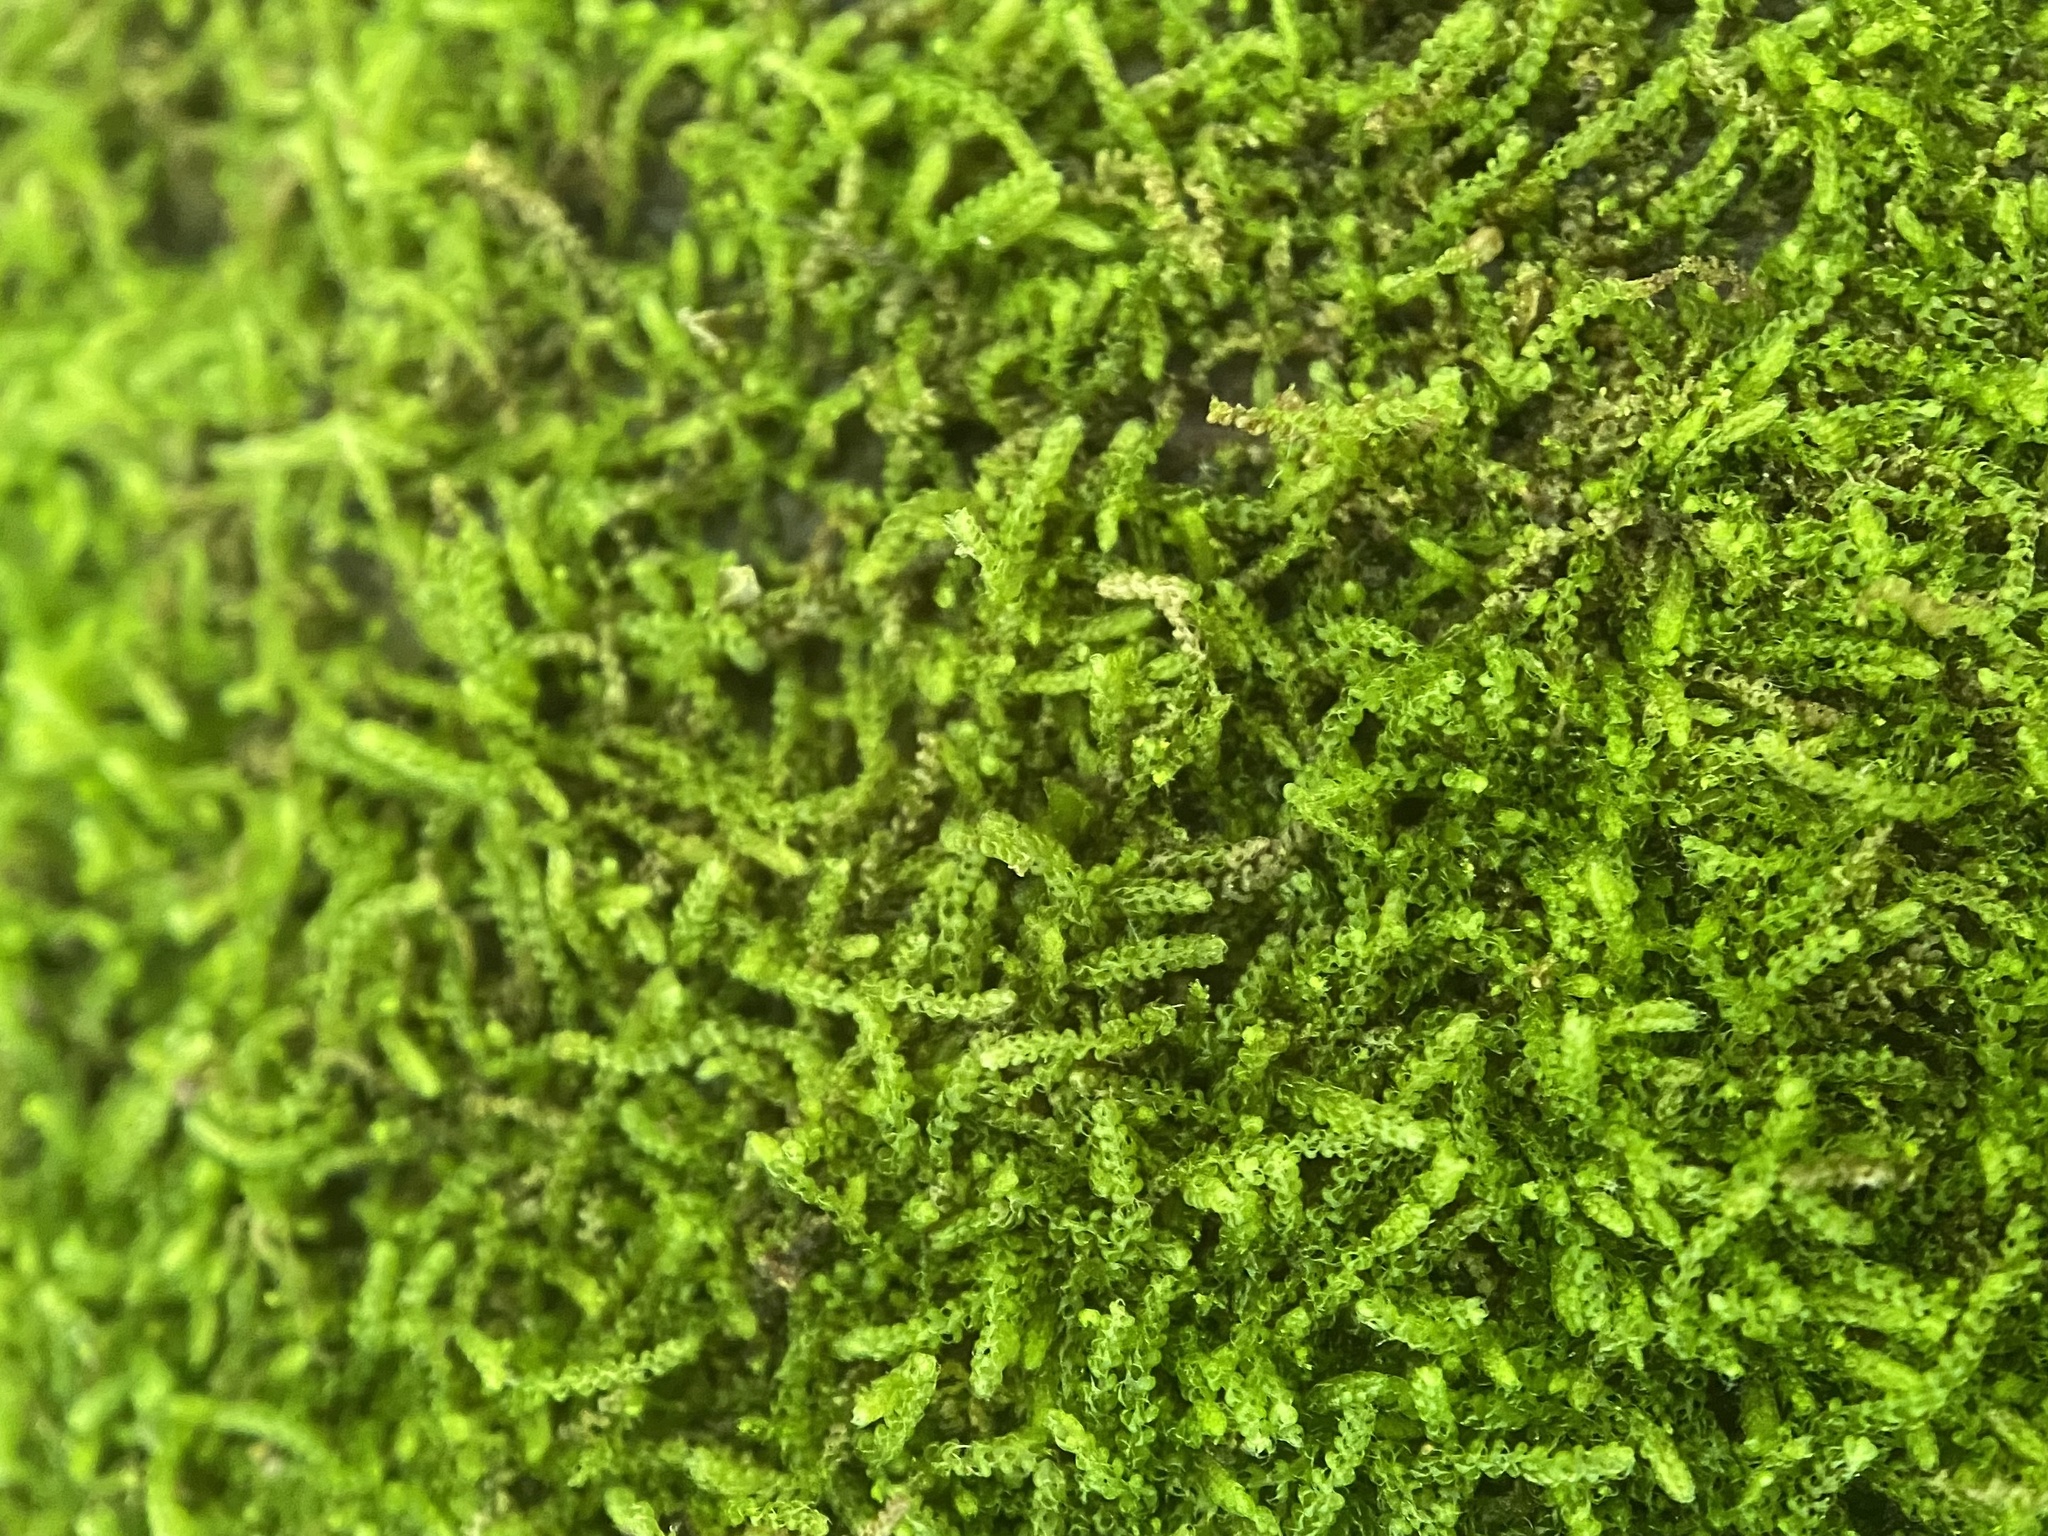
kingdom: Plantae
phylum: Marchantiophyta
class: Jungermanniopsida
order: Jungermanniales
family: Cephaloziaceae
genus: Nowellia
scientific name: Nowellia curvifolia
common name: Wood rustwort
